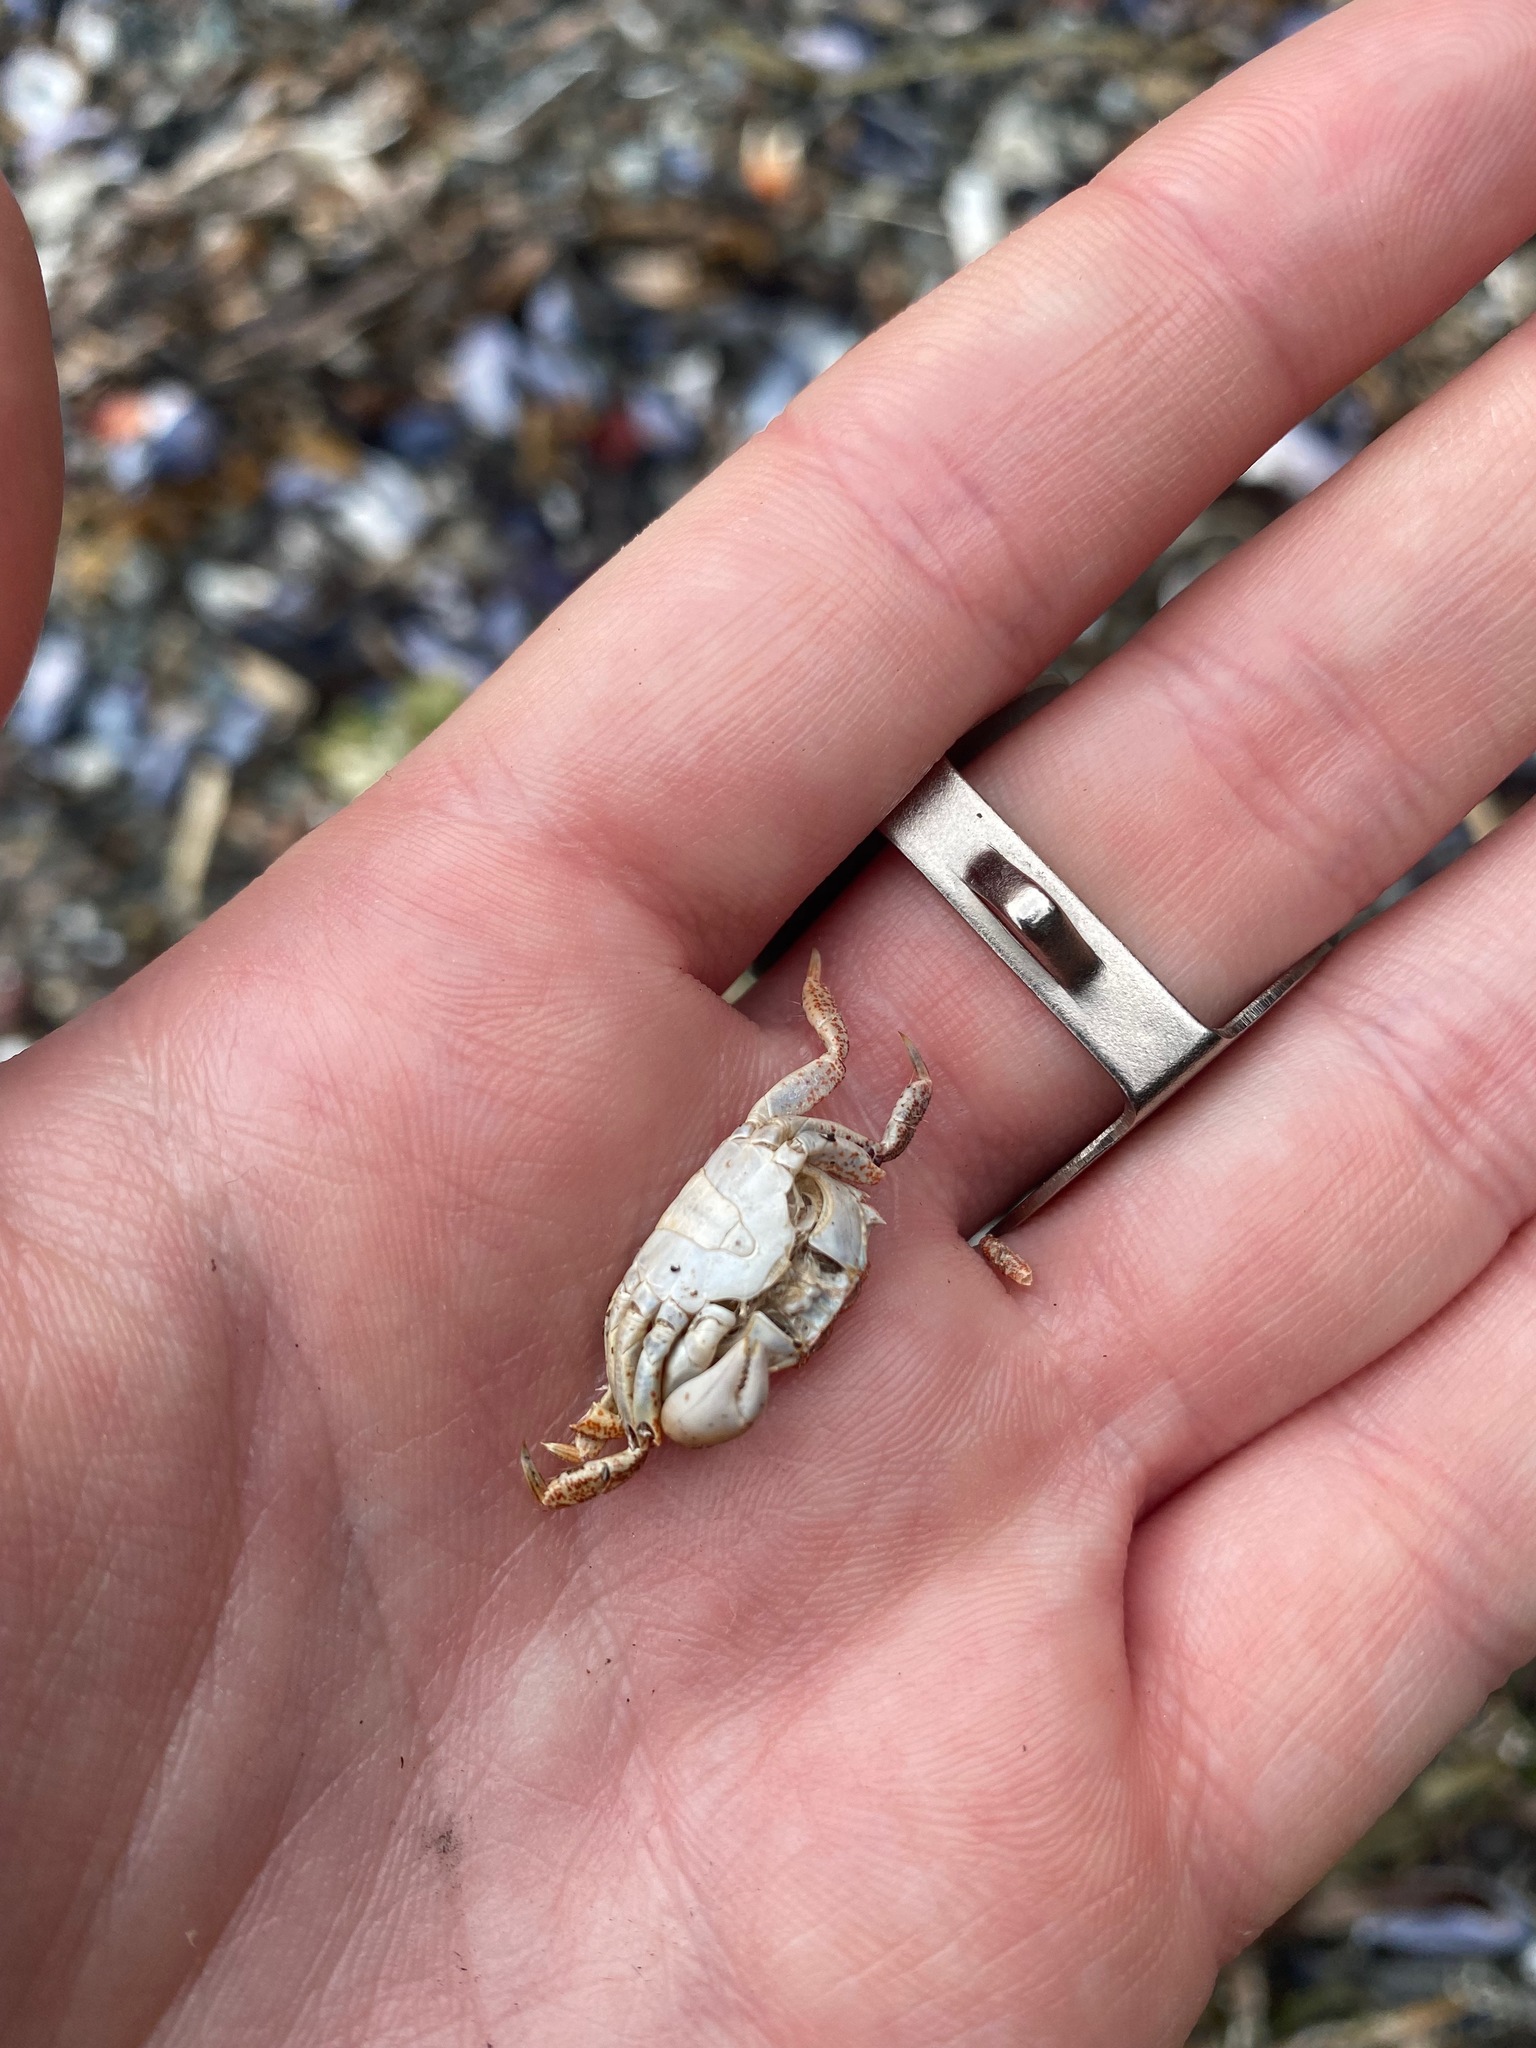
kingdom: Animalia
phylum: Arthropoda
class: Malacostraca
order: Decapoda
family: Varunidae
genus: Hemigrapsus
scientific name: Hemigrapsus oregonensis
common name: Yellow shore crab
